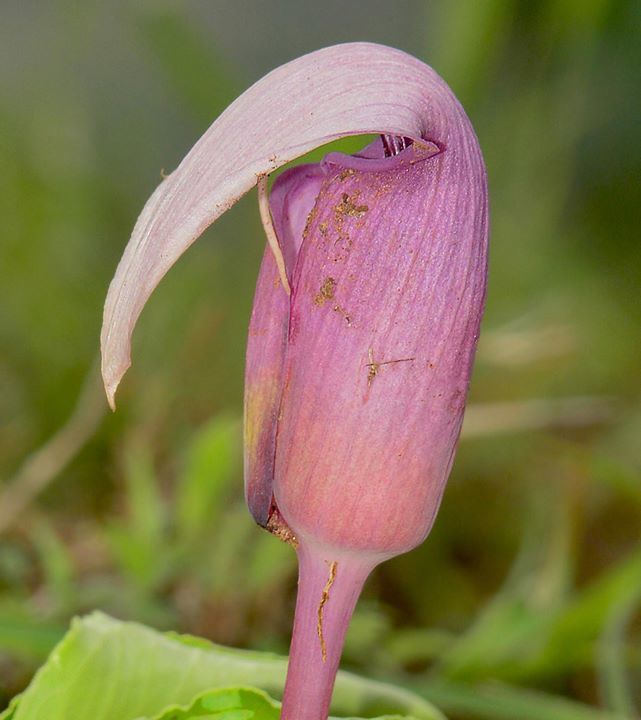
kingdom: Plantae
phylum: Tracheophyta
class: Liliopsida
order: Alismatales
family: Araceae
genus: Arisaema
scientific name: Arisaema murrayi
